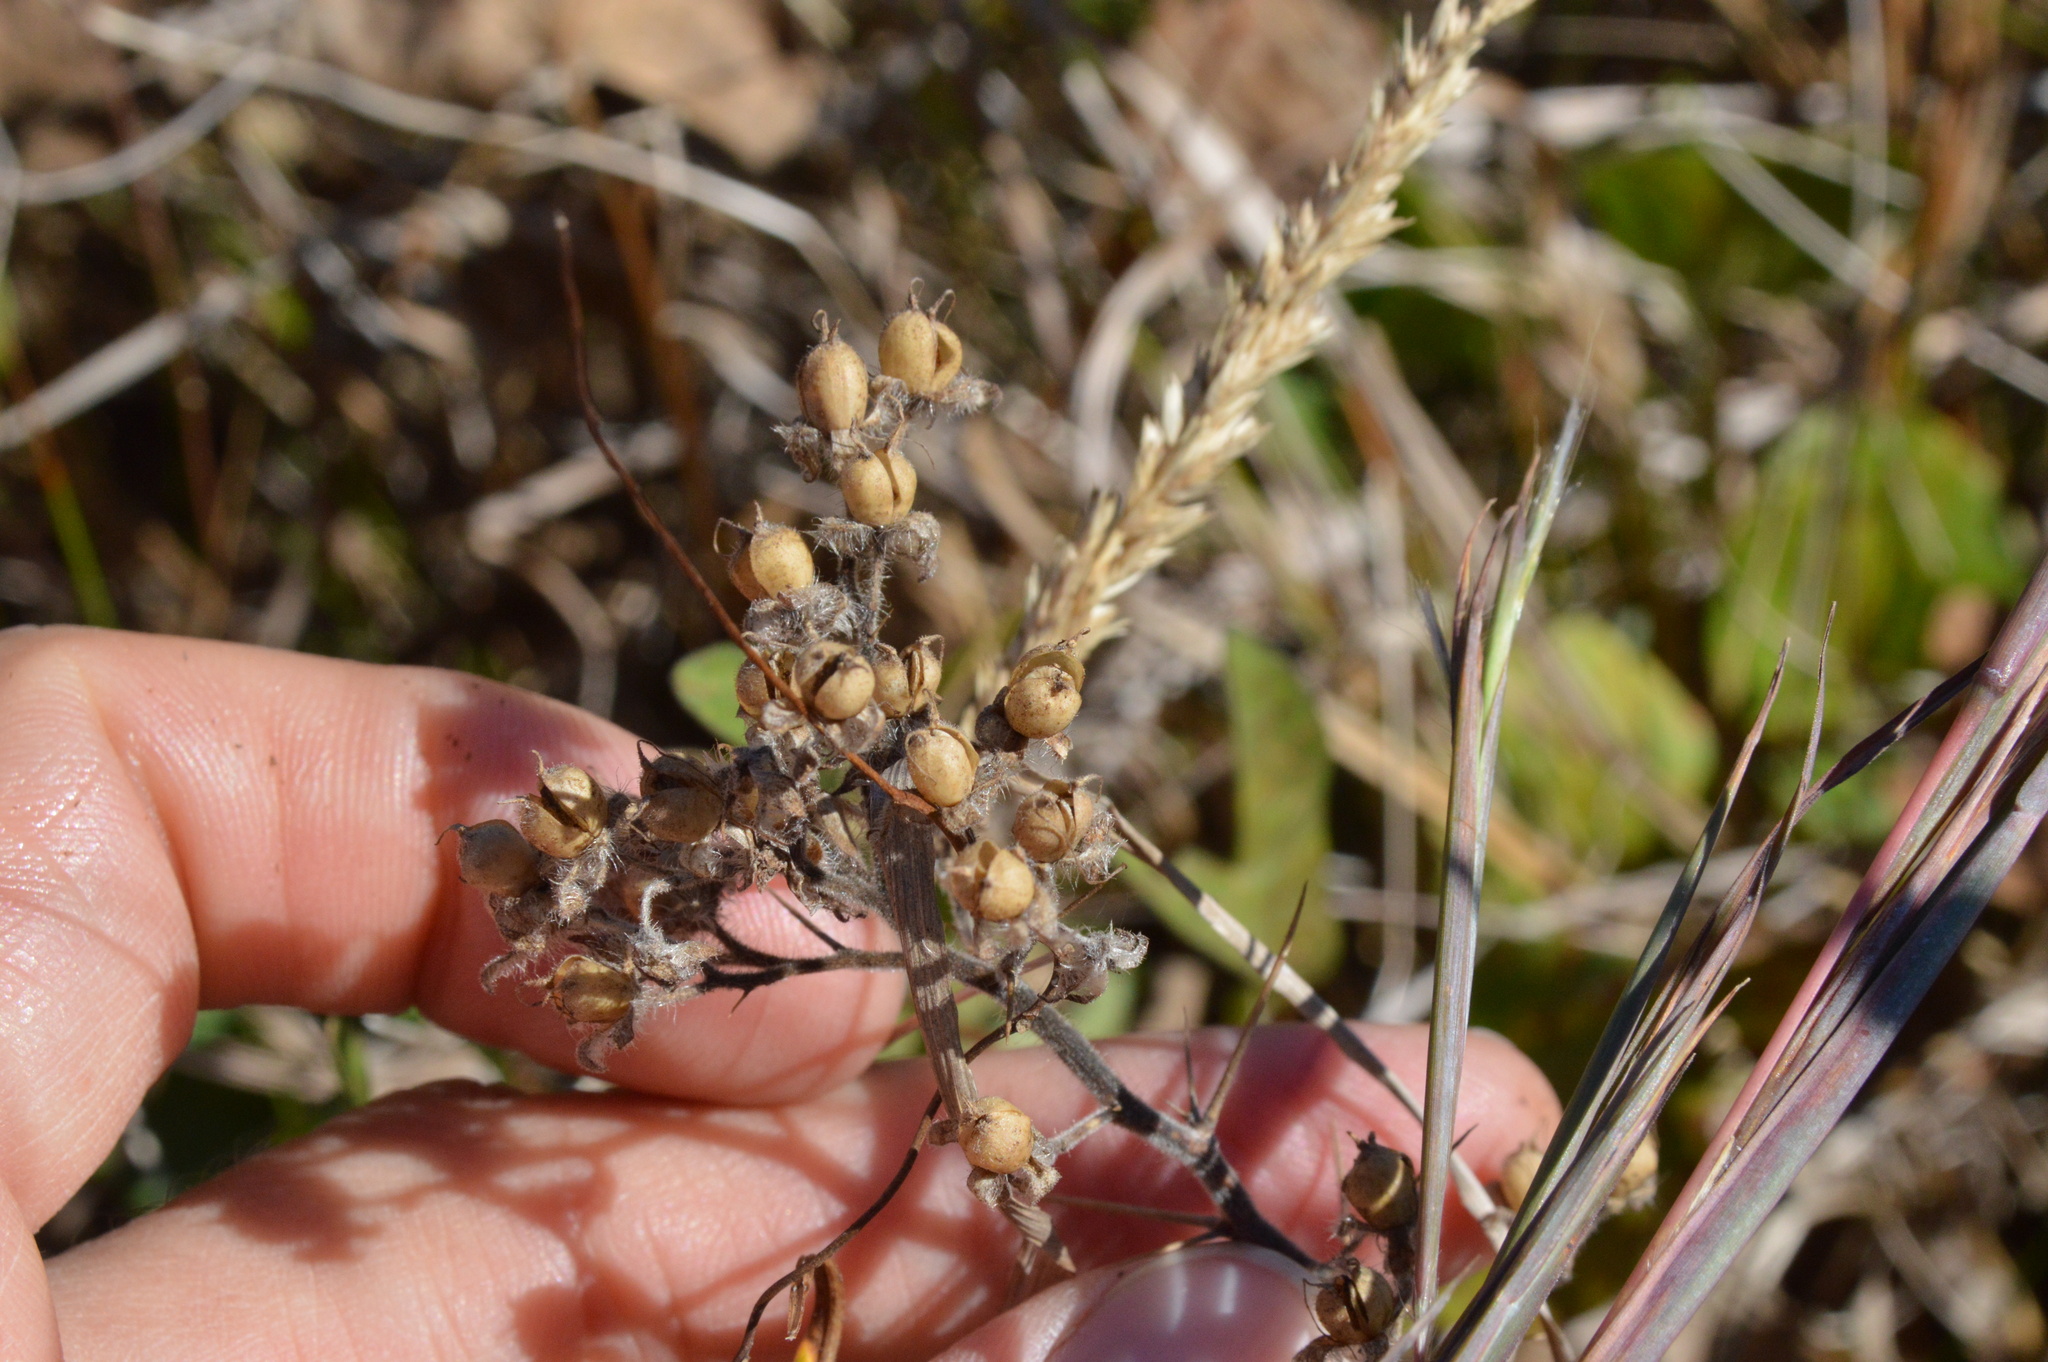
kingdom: Plantae
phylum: Tracheophyta
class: Magnoliopsida
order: Solanales
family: Hydroleaceae
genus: Hydrolea
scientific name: Hydrolea ovata
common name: Ovate false fiddleleaf
